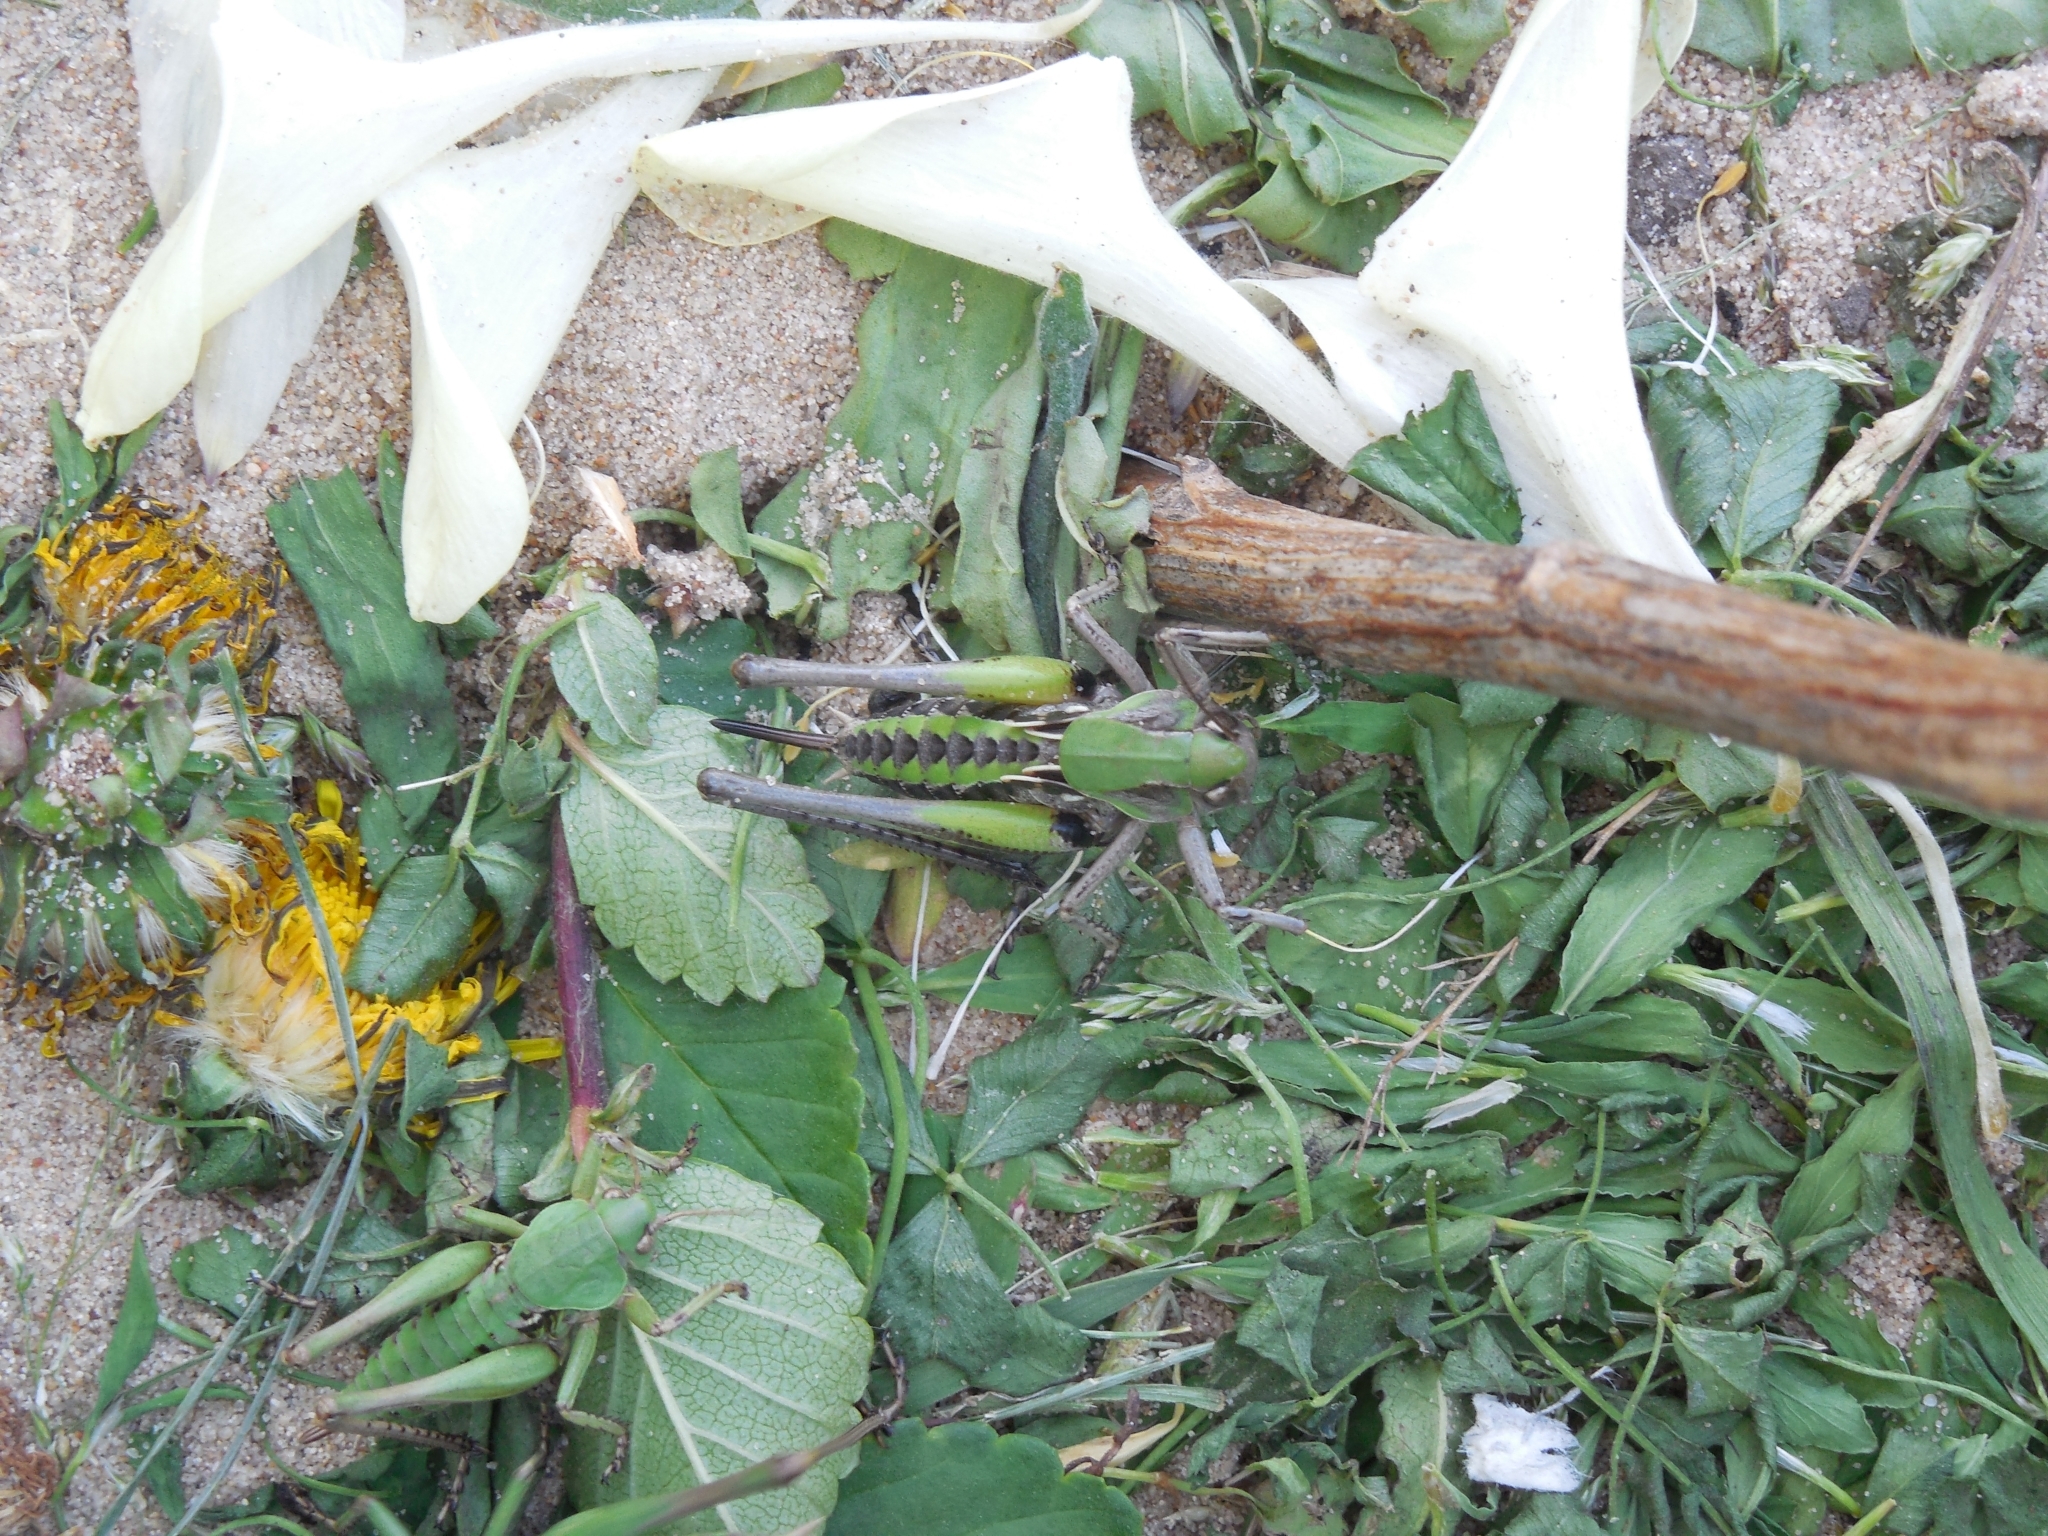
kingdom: Animalia
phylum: Arthropoda
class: Insecta
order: Orthoptera
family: Tettigoniidae
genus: Decticus
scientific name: Decticus verrucivorus
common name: Wart-biter
